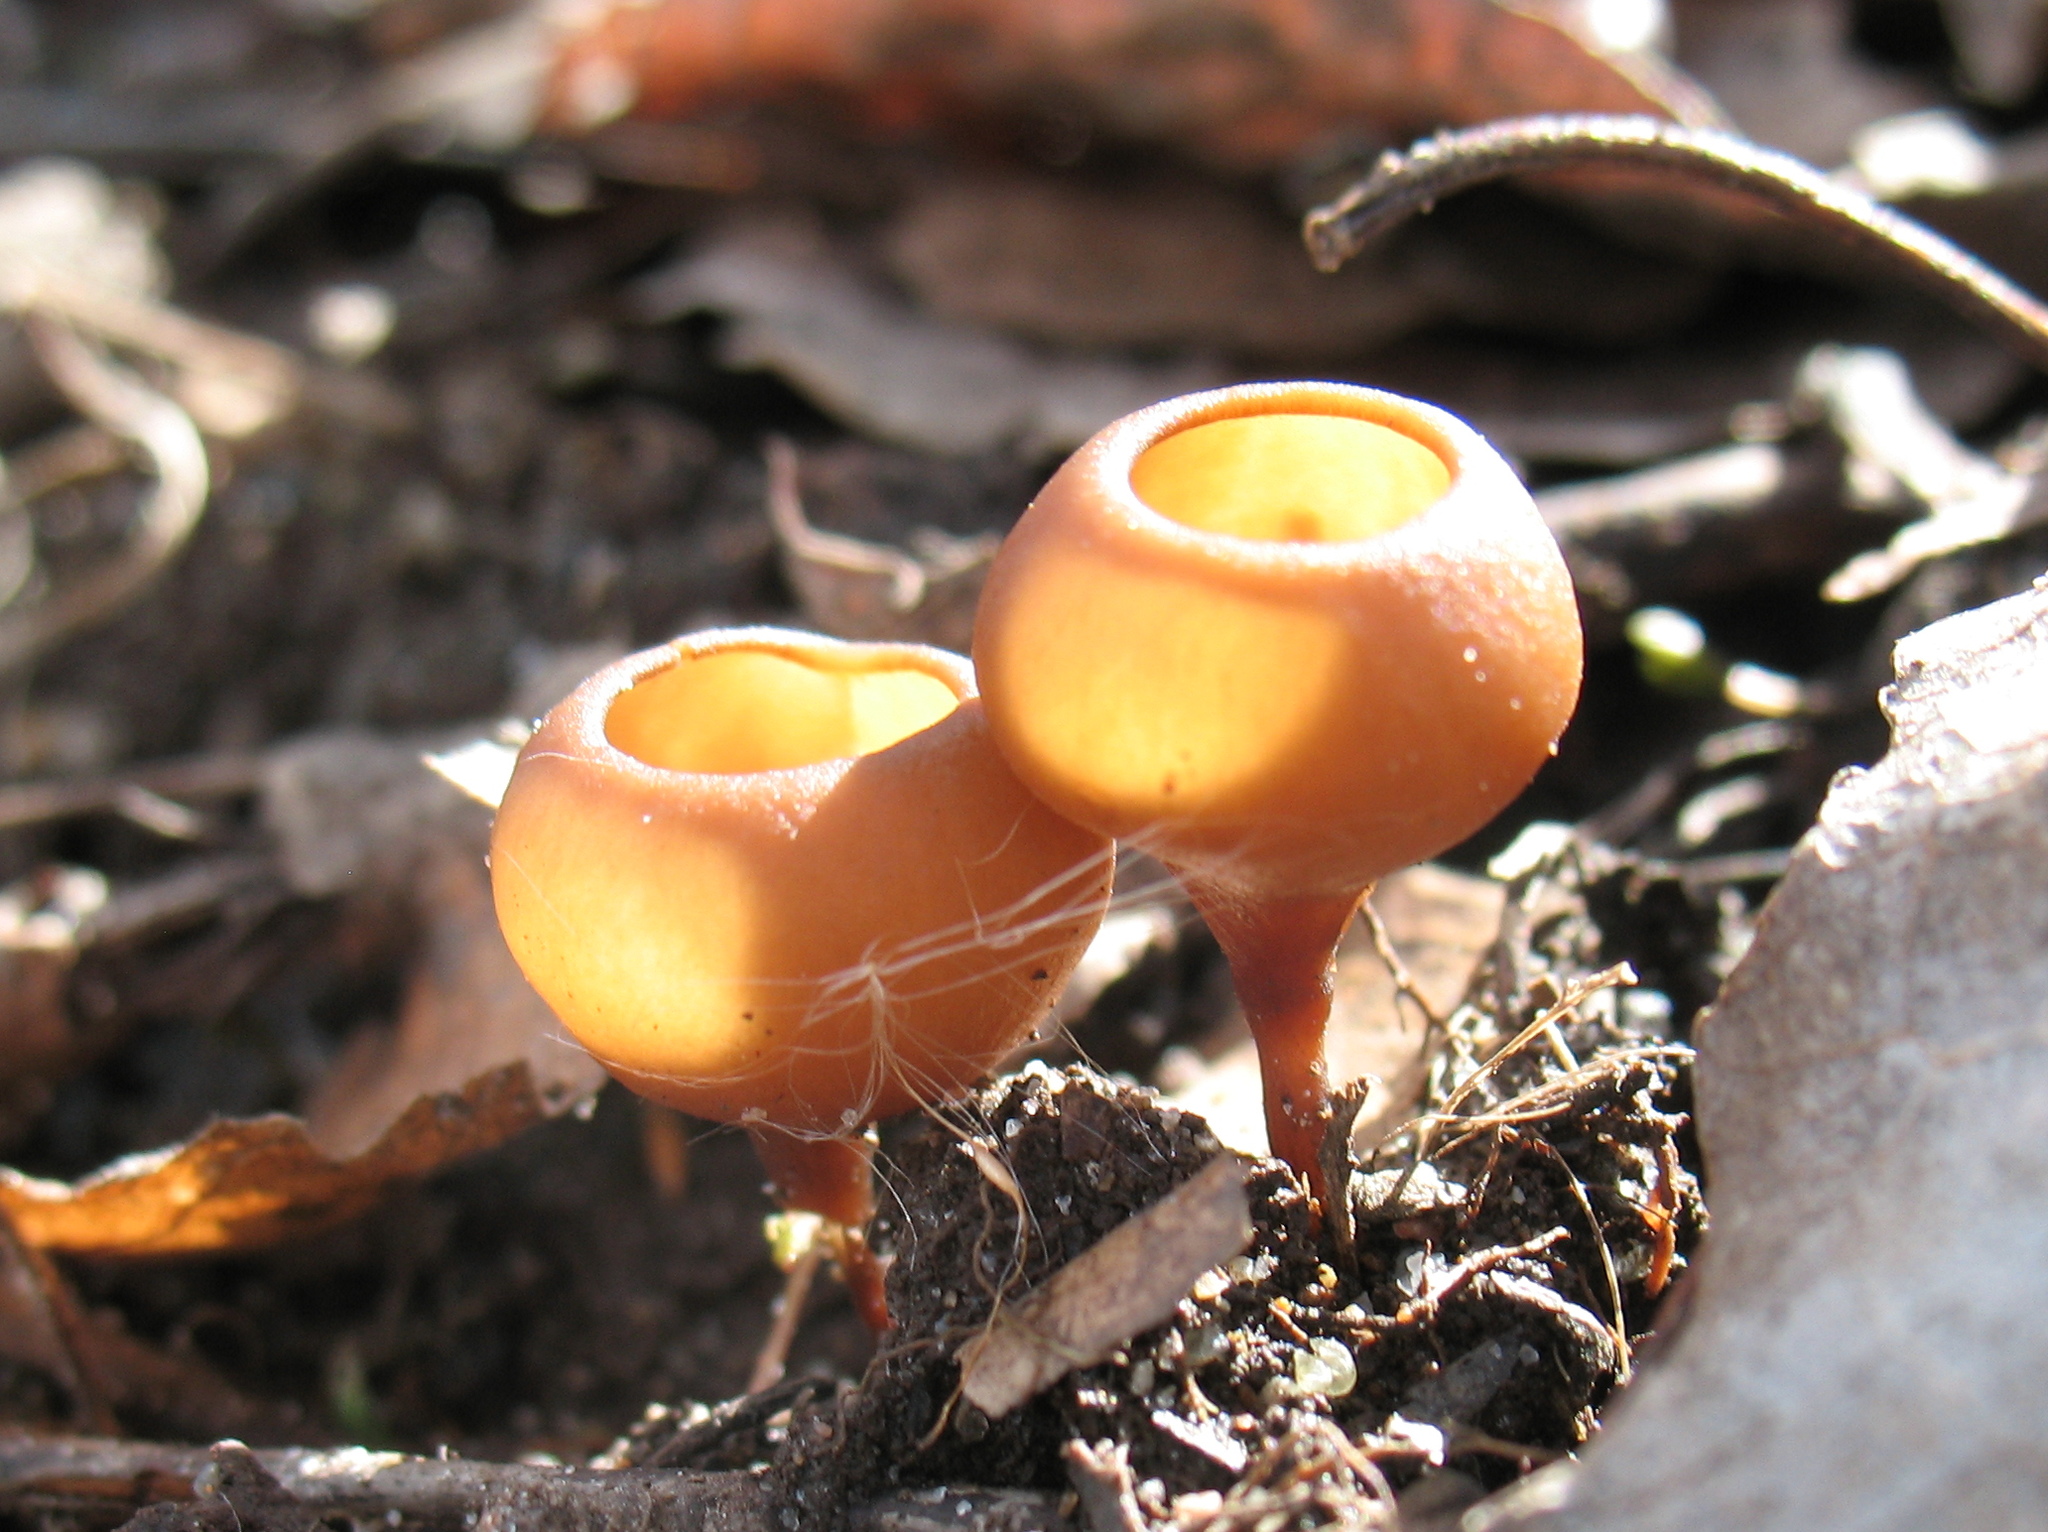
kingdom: Fungi
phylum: Ascomycota
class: Leotiomycetes
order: Helotiales
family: Sclerotiniaceae
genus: Dumontinia
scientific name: Dumontinia tuberosa
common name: Anemone cup
